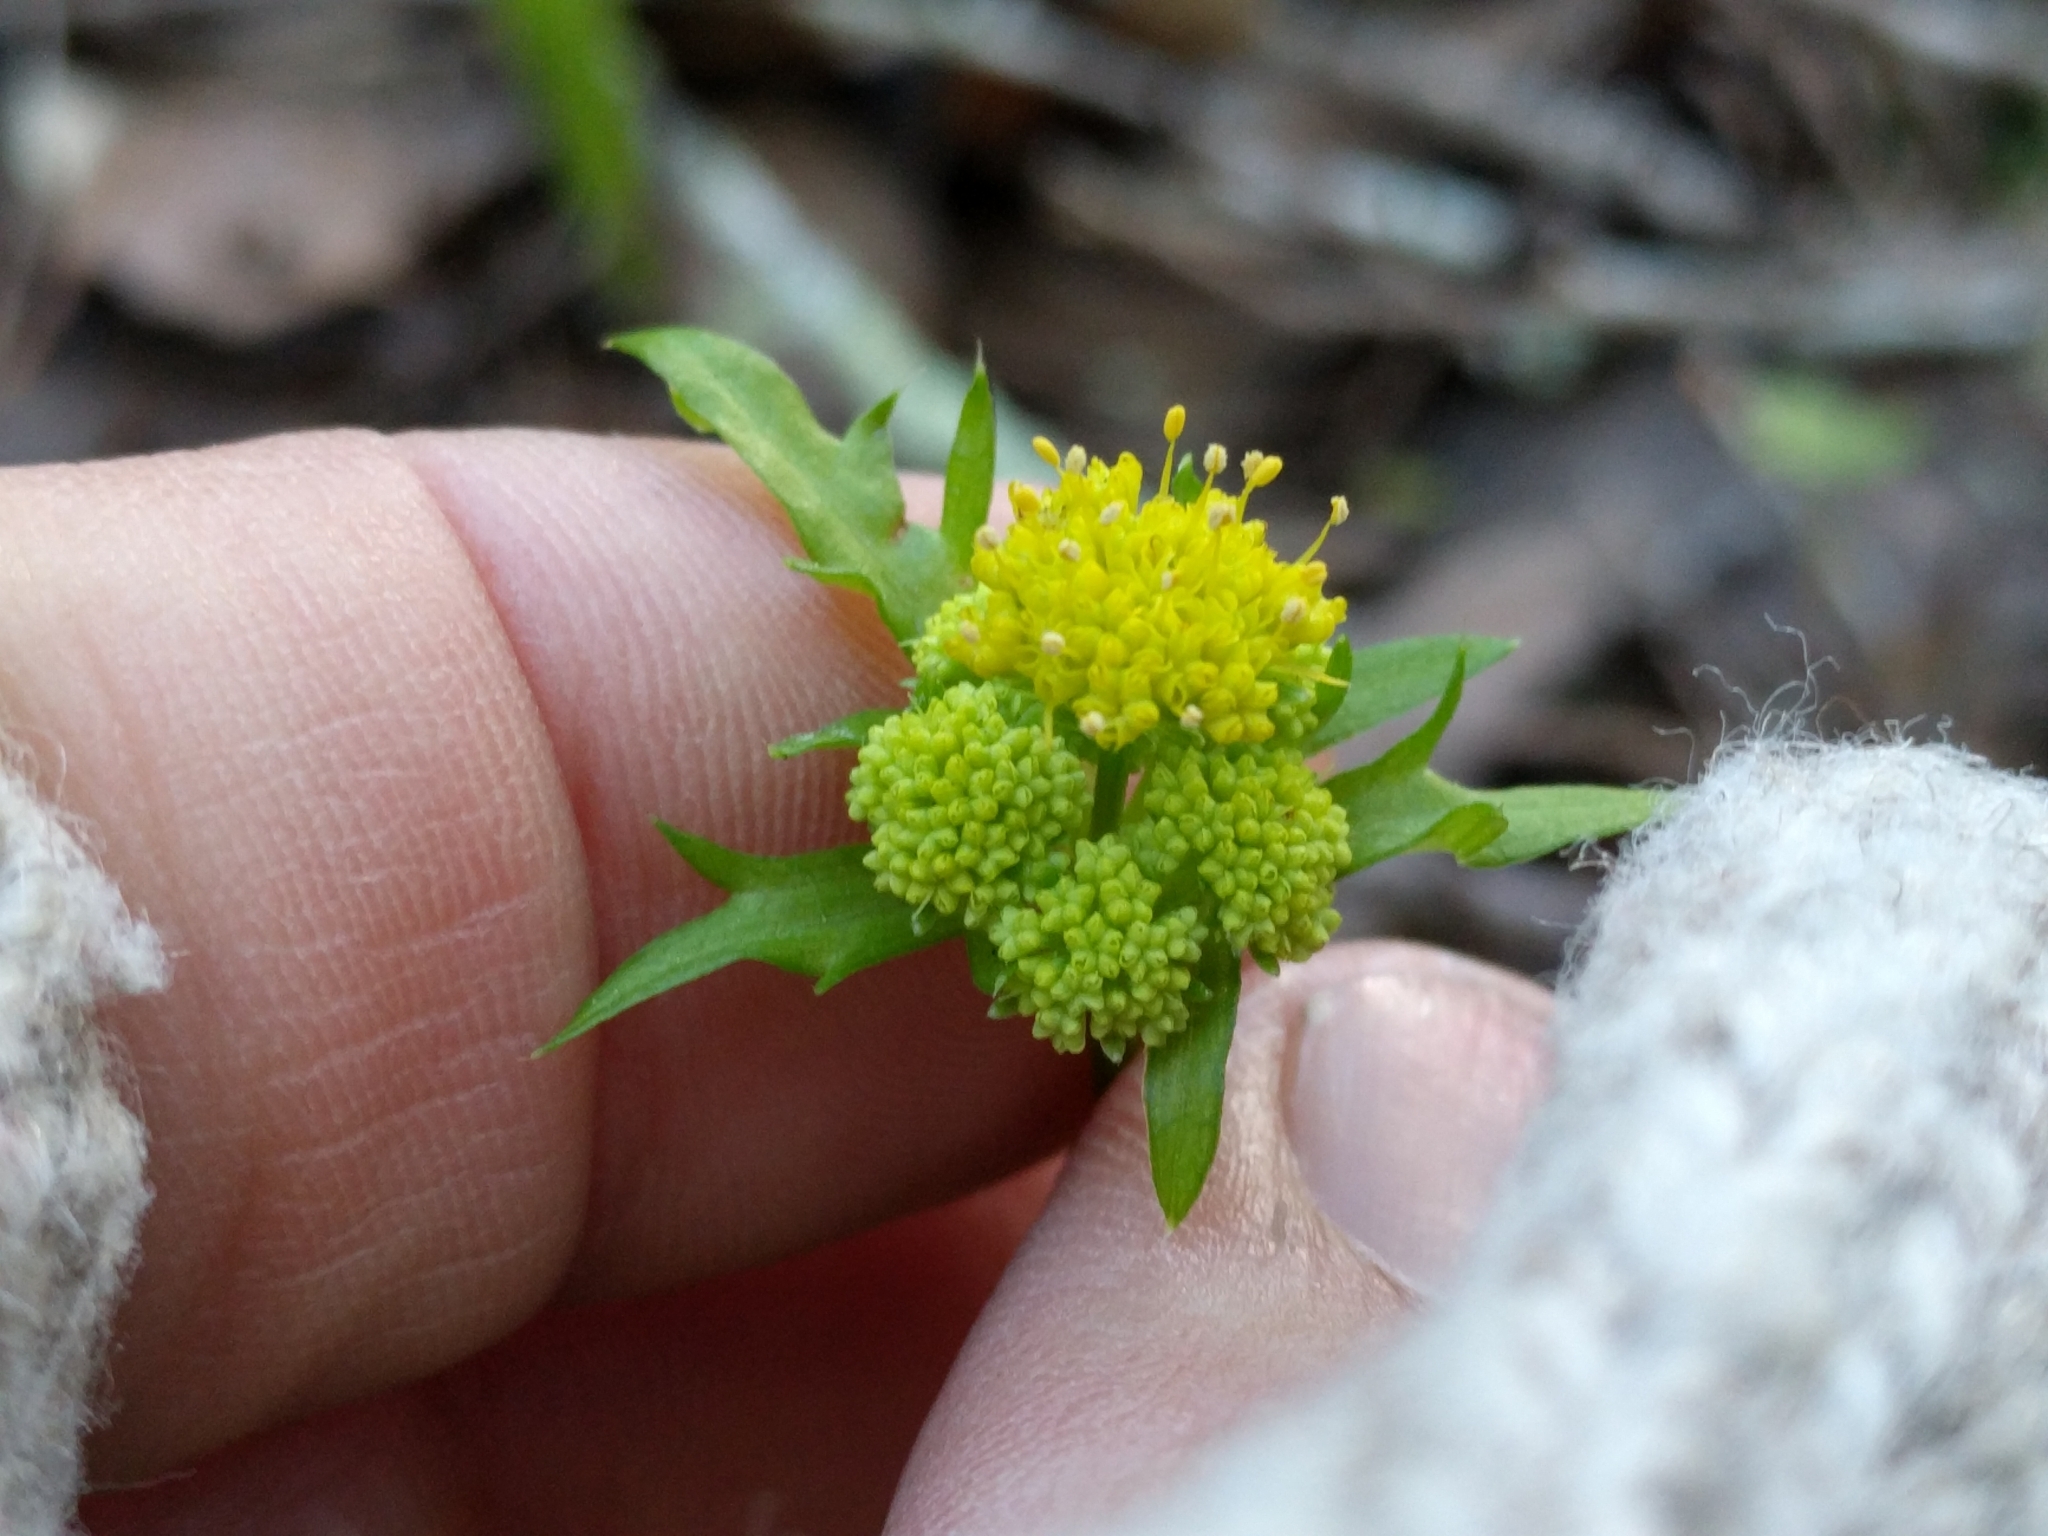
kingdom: Plantae
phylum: Tracheophyta
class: Magnoliopsida
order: Apiales
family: Apiaceae
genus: Sanicula
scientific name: Sanicula laciniata
